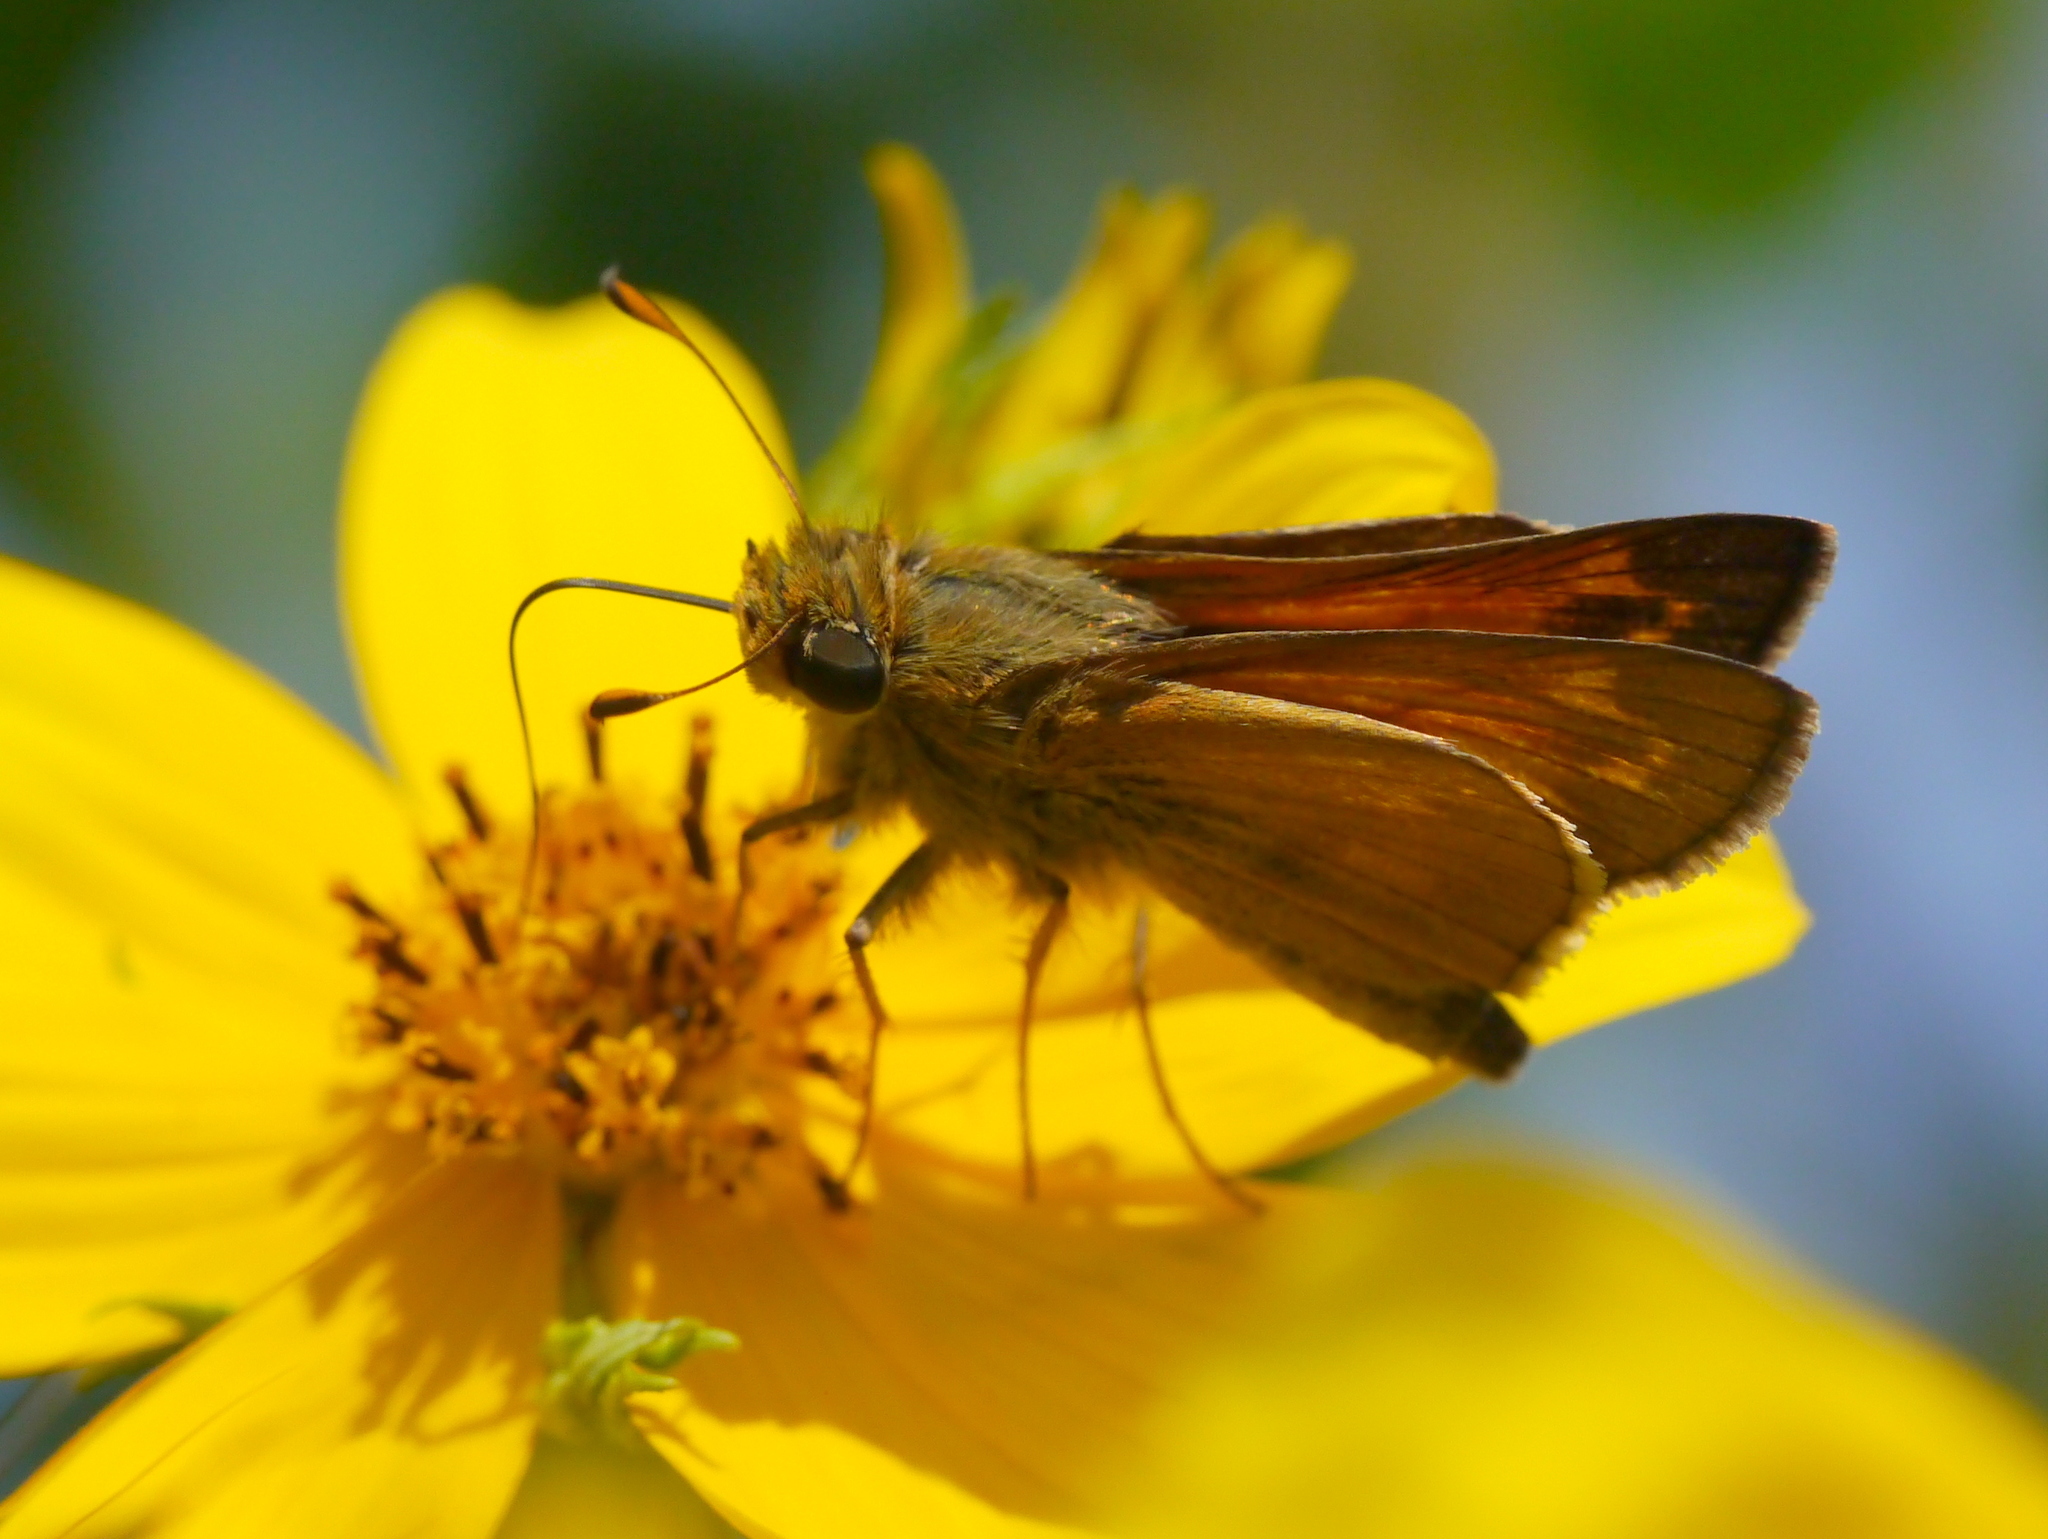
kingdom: Animalia
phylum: Arthropoda
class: Insecta
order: Lepidoptera
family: Hesperiidae
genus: Atalopedes
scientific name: Atalopedes
